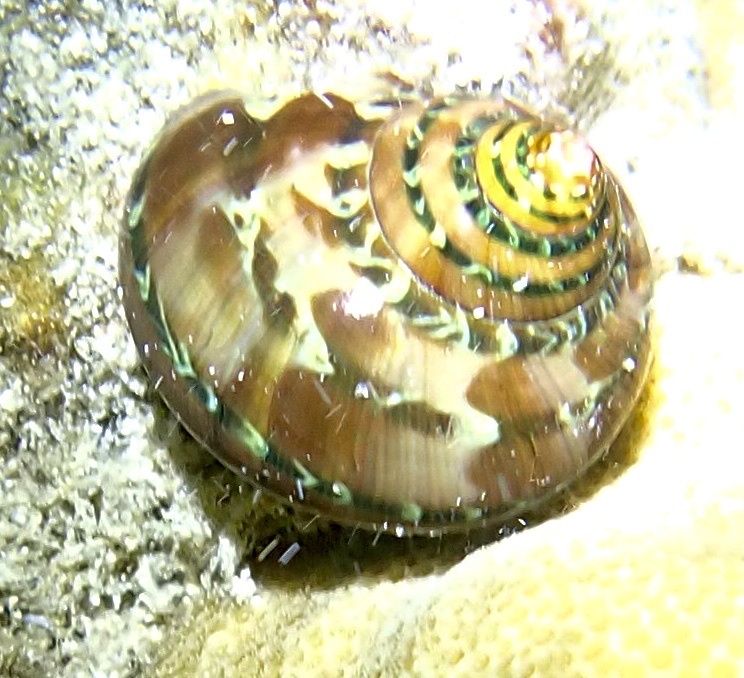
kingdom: Animalia
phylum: Mollusca
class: Gastropoda
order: Trochida
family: Turbinidae
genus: Turbo
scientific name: Turbo petholatus
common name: Cat's-eye shell
